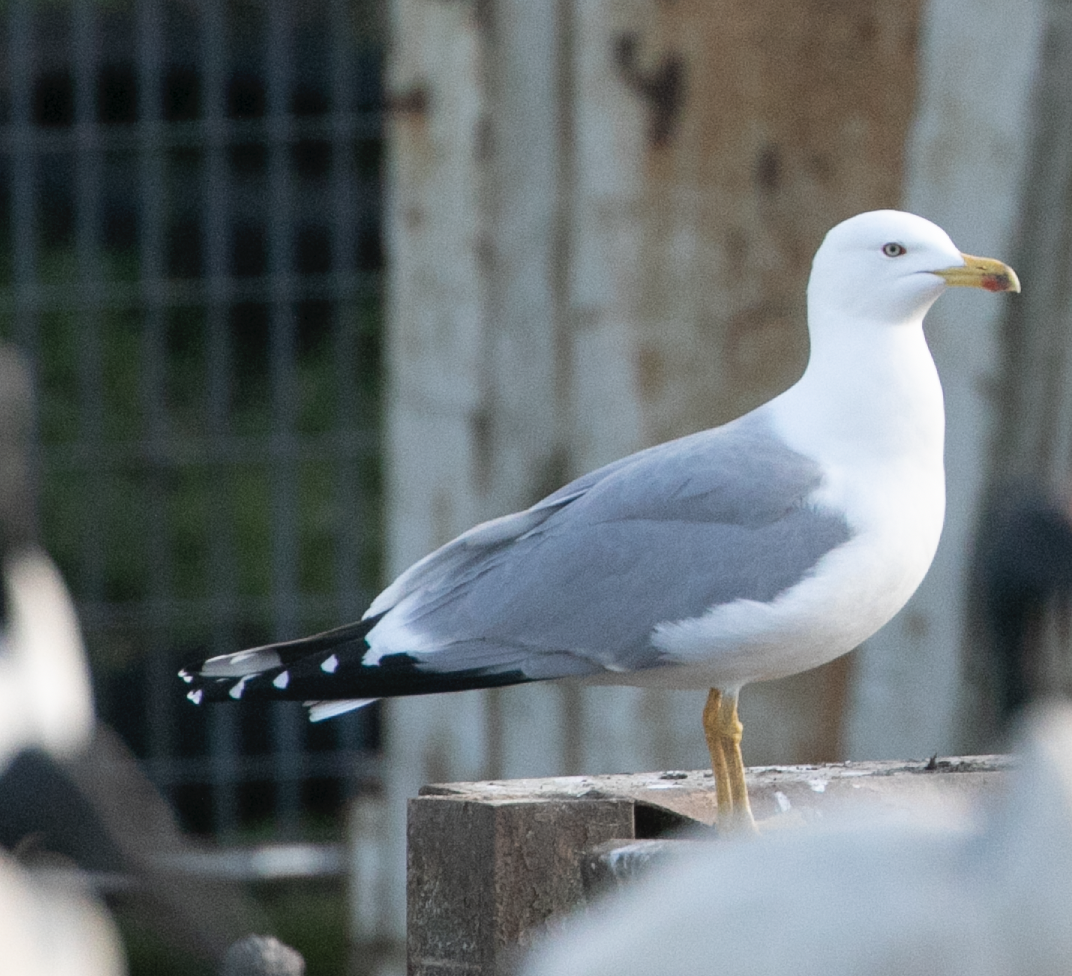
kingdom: Animalia
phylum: Chordata
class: Aves
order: Charadriiformes
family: Laridae
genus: Larus
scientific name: Larus michahellis
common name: Yellow-legged gull
